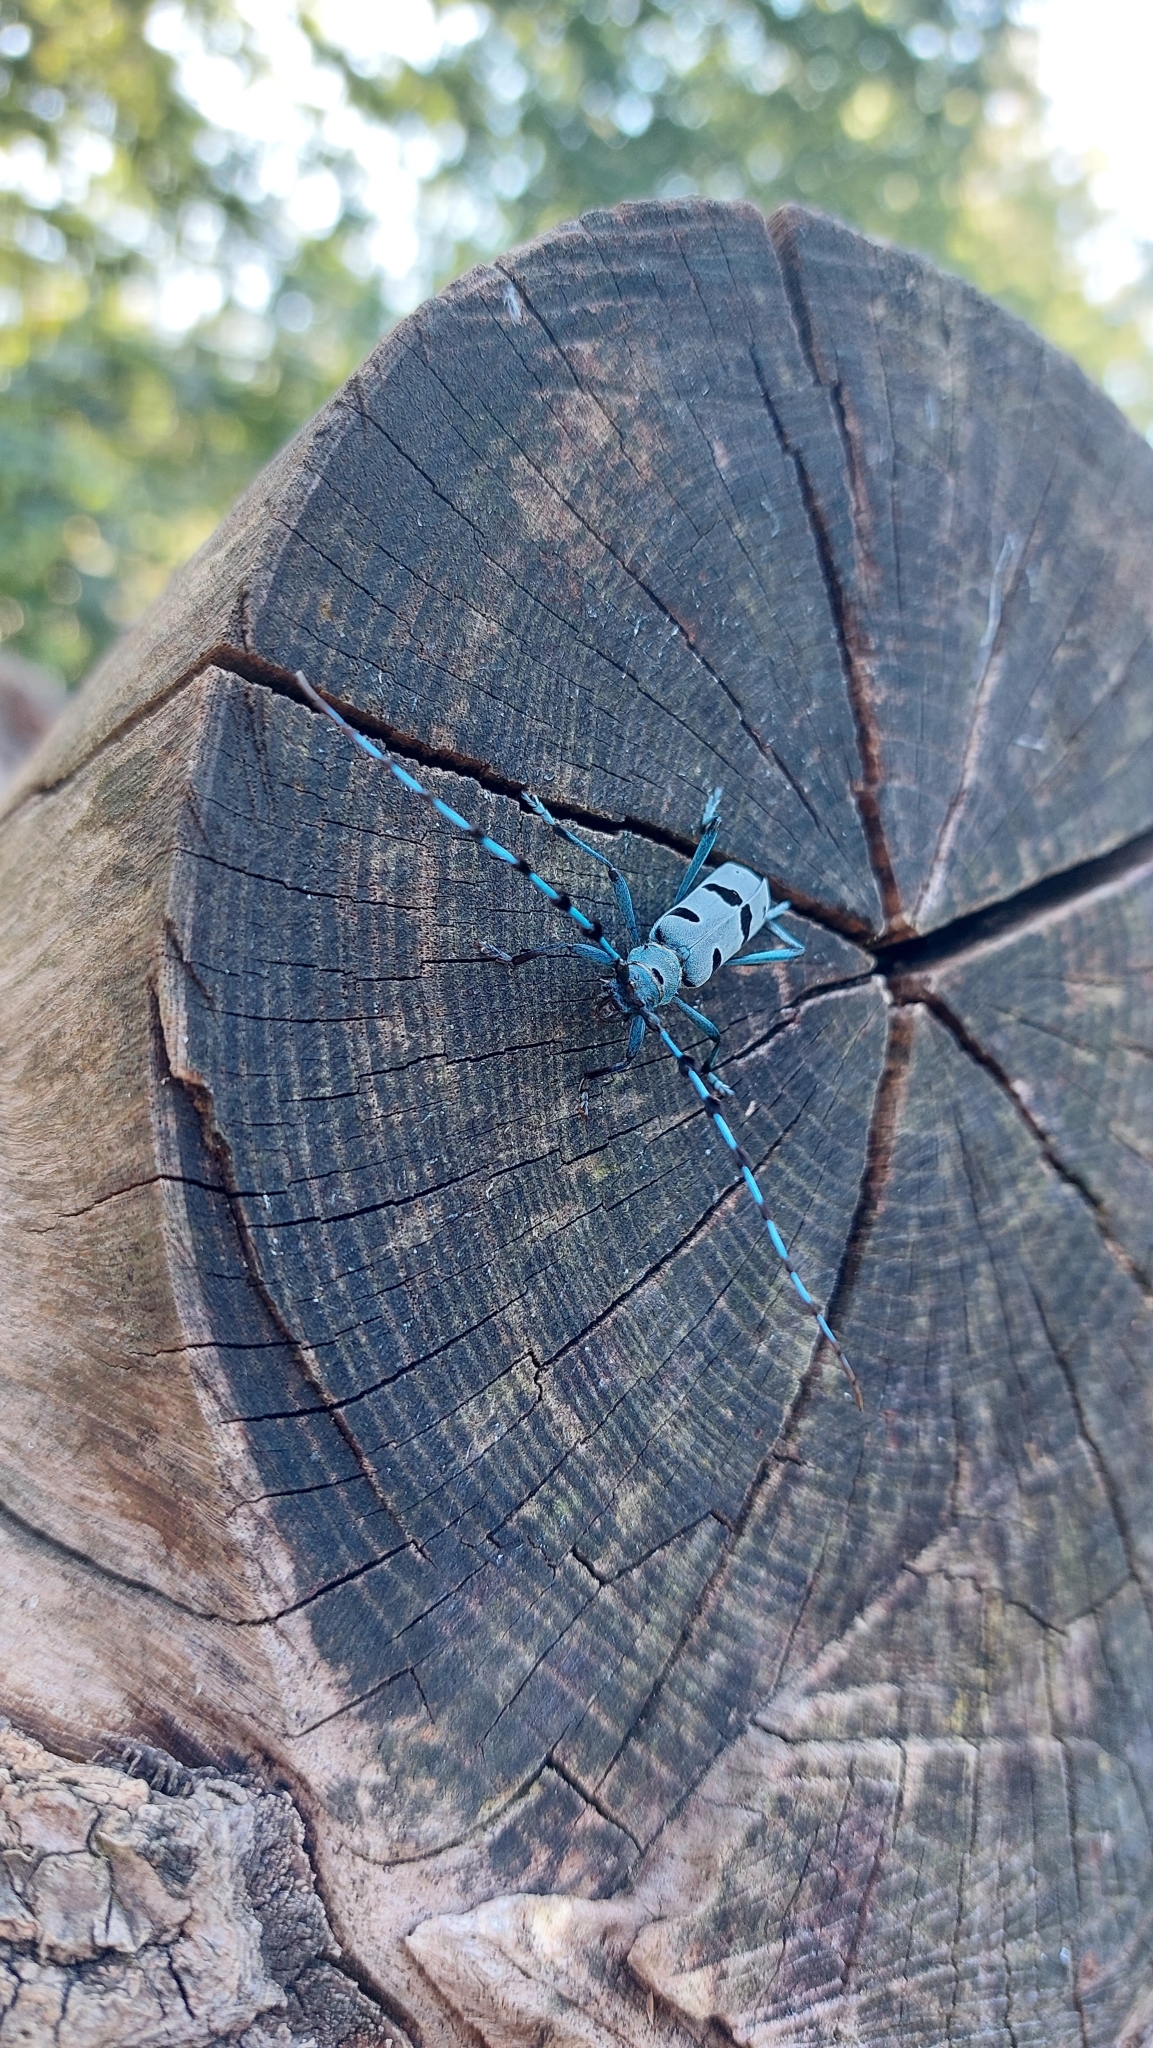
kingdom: Animalia
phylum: Arthropoda
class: Insecta
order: Coleoptera
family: Cerambycidae
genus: Rosalia
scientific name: Rosalia alpina
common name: Rosalia longicorn
